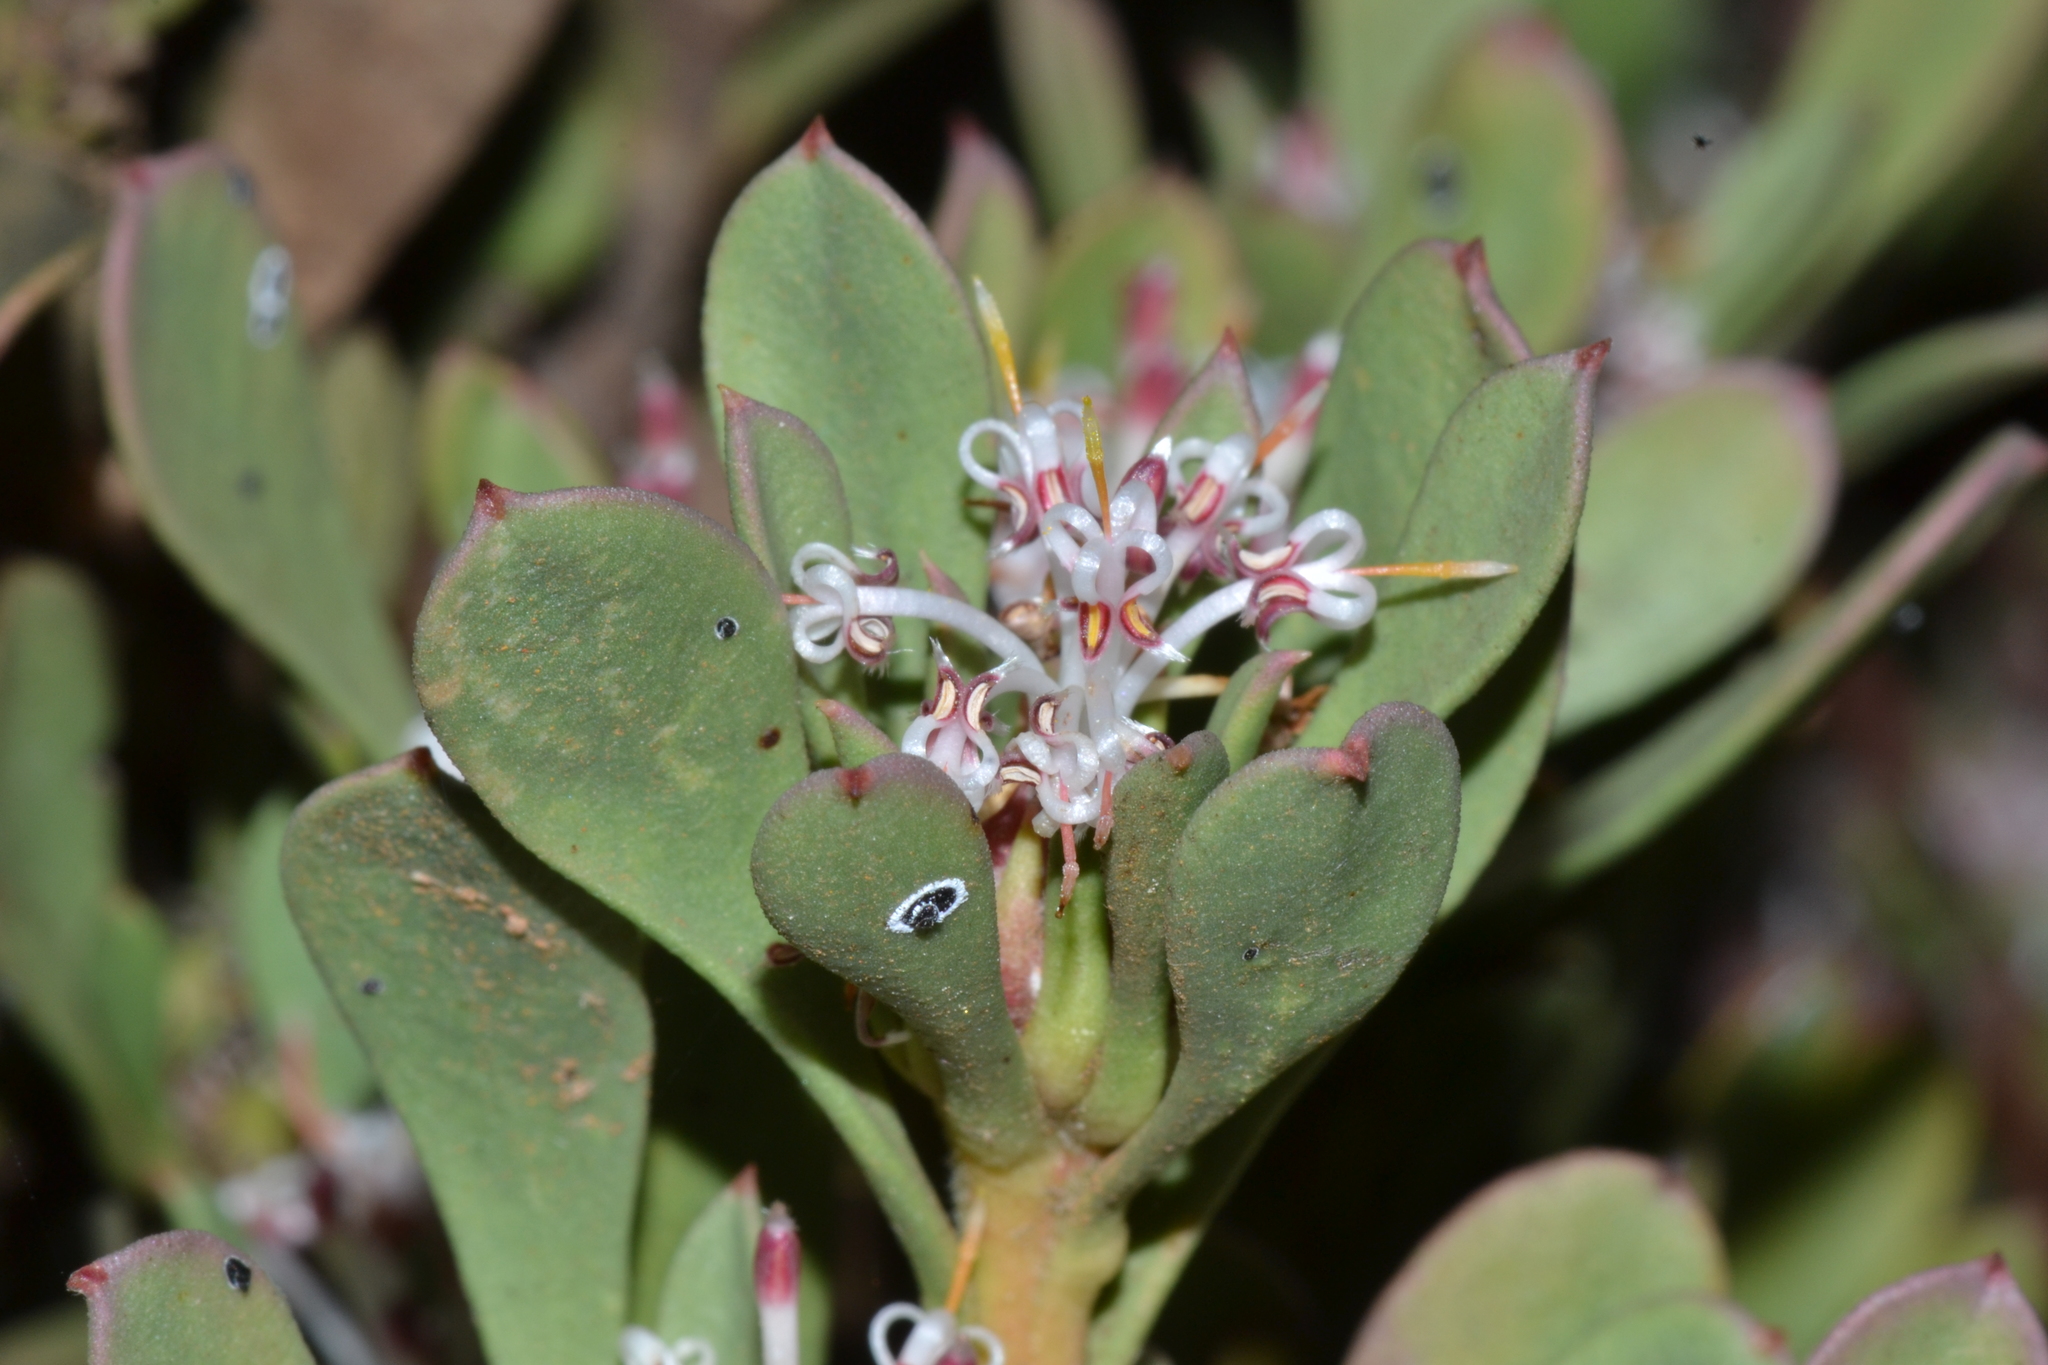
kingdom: Plantae
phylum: Tracheophyta
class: Magnoliopsida
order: Proteales
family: Proteaceae
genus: Isopogon
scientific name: Isopogon buxifolius
